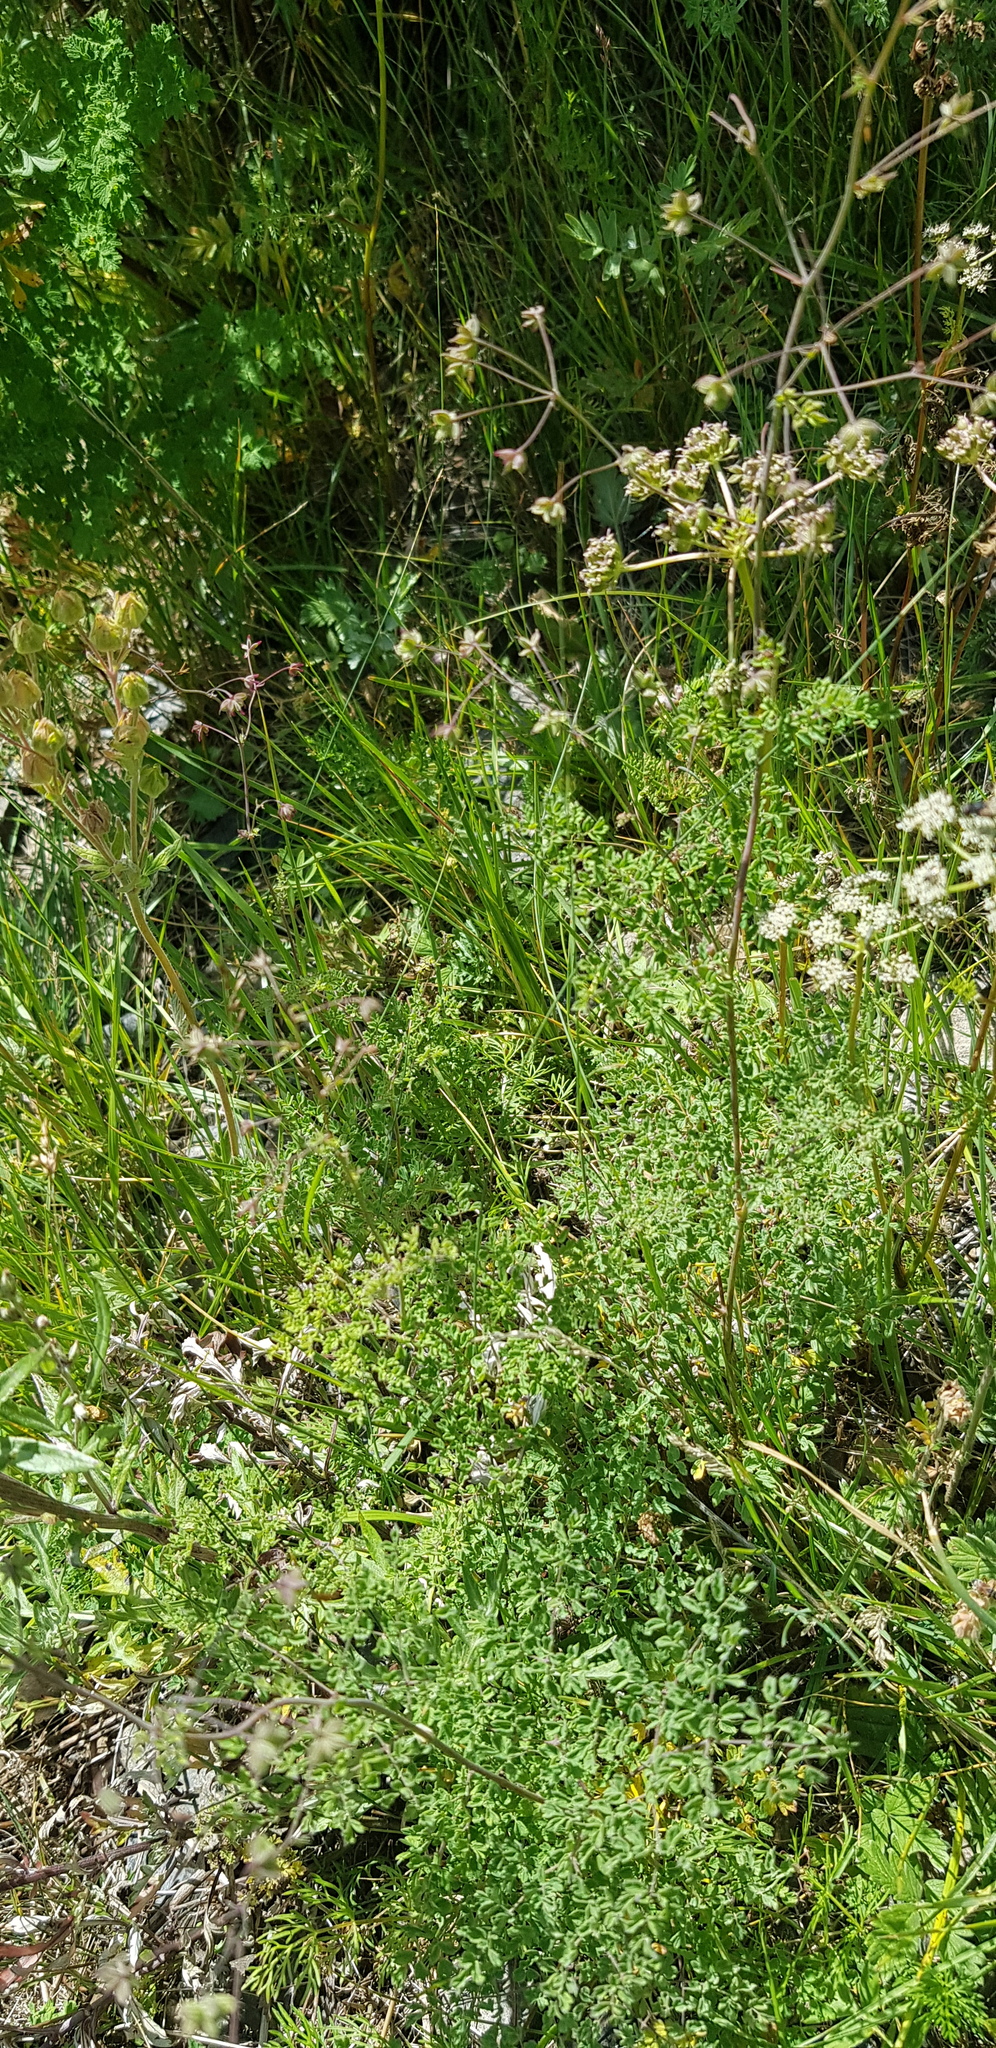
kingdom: Plantae
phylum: Tracheophyta
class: Magnoliopsida
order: Ranunculales
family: Ranunculaceae
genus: Thalictrum
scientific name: Thalictrum simplex
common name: Small meadow-rue
